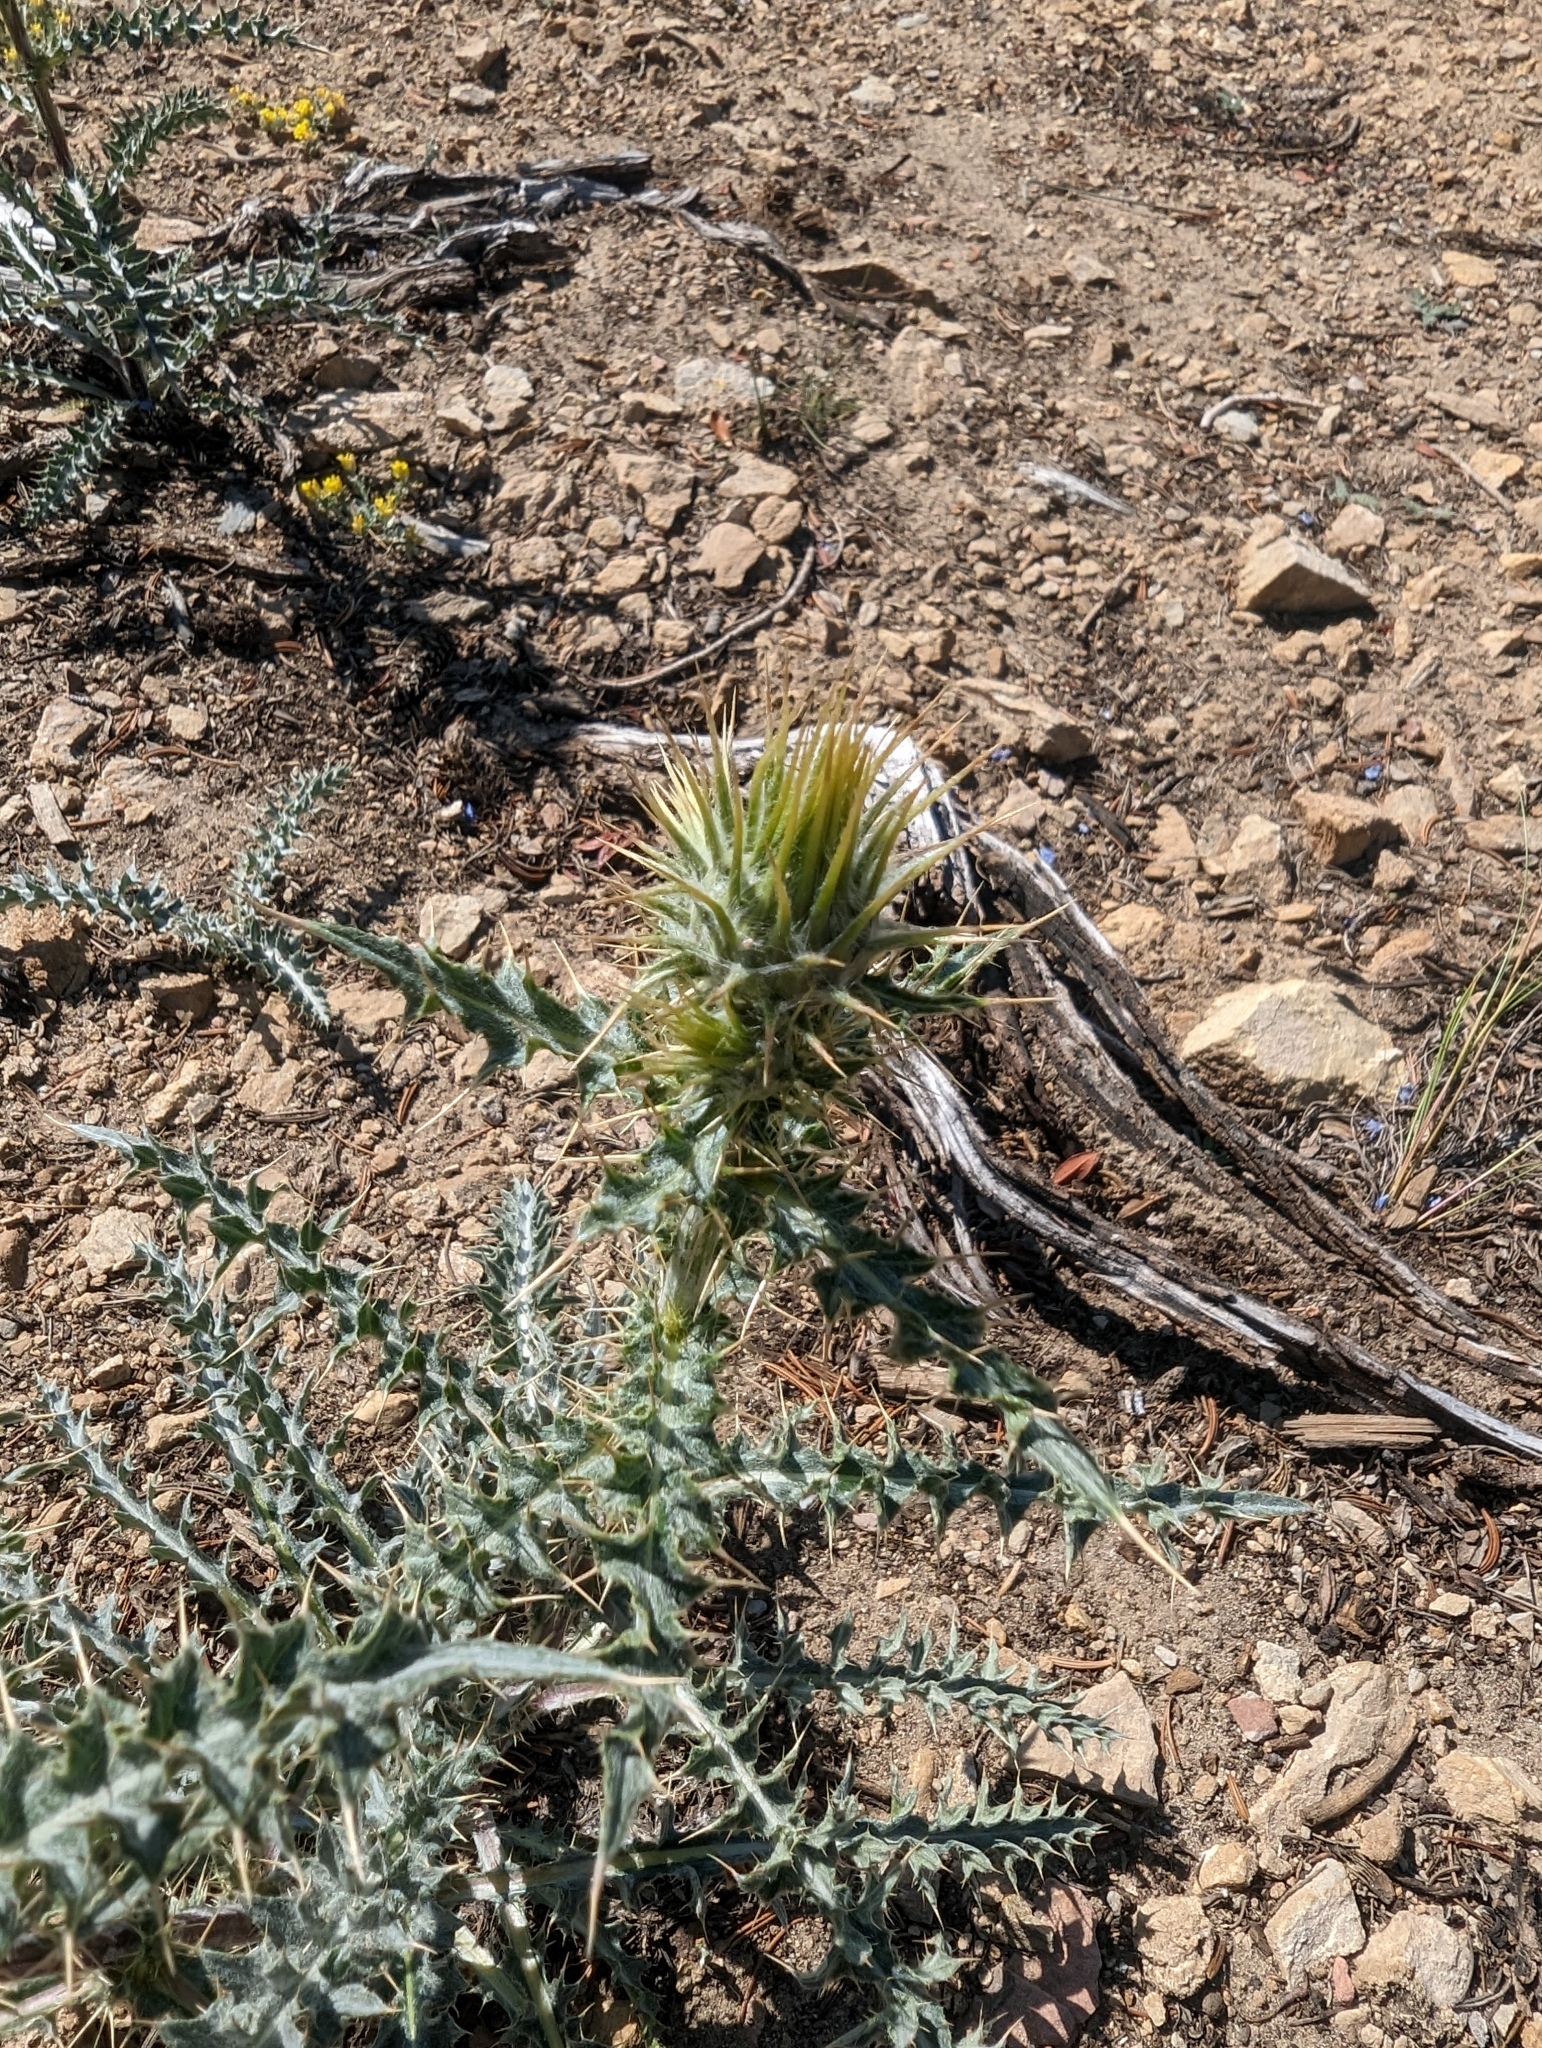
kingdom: Plantae
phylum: Tracheophyta
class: Magnoliopsida
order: Asterales
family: Asteraceae
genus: Cirsium
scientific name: Cirsium arizonicum
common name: Arizona thistle
